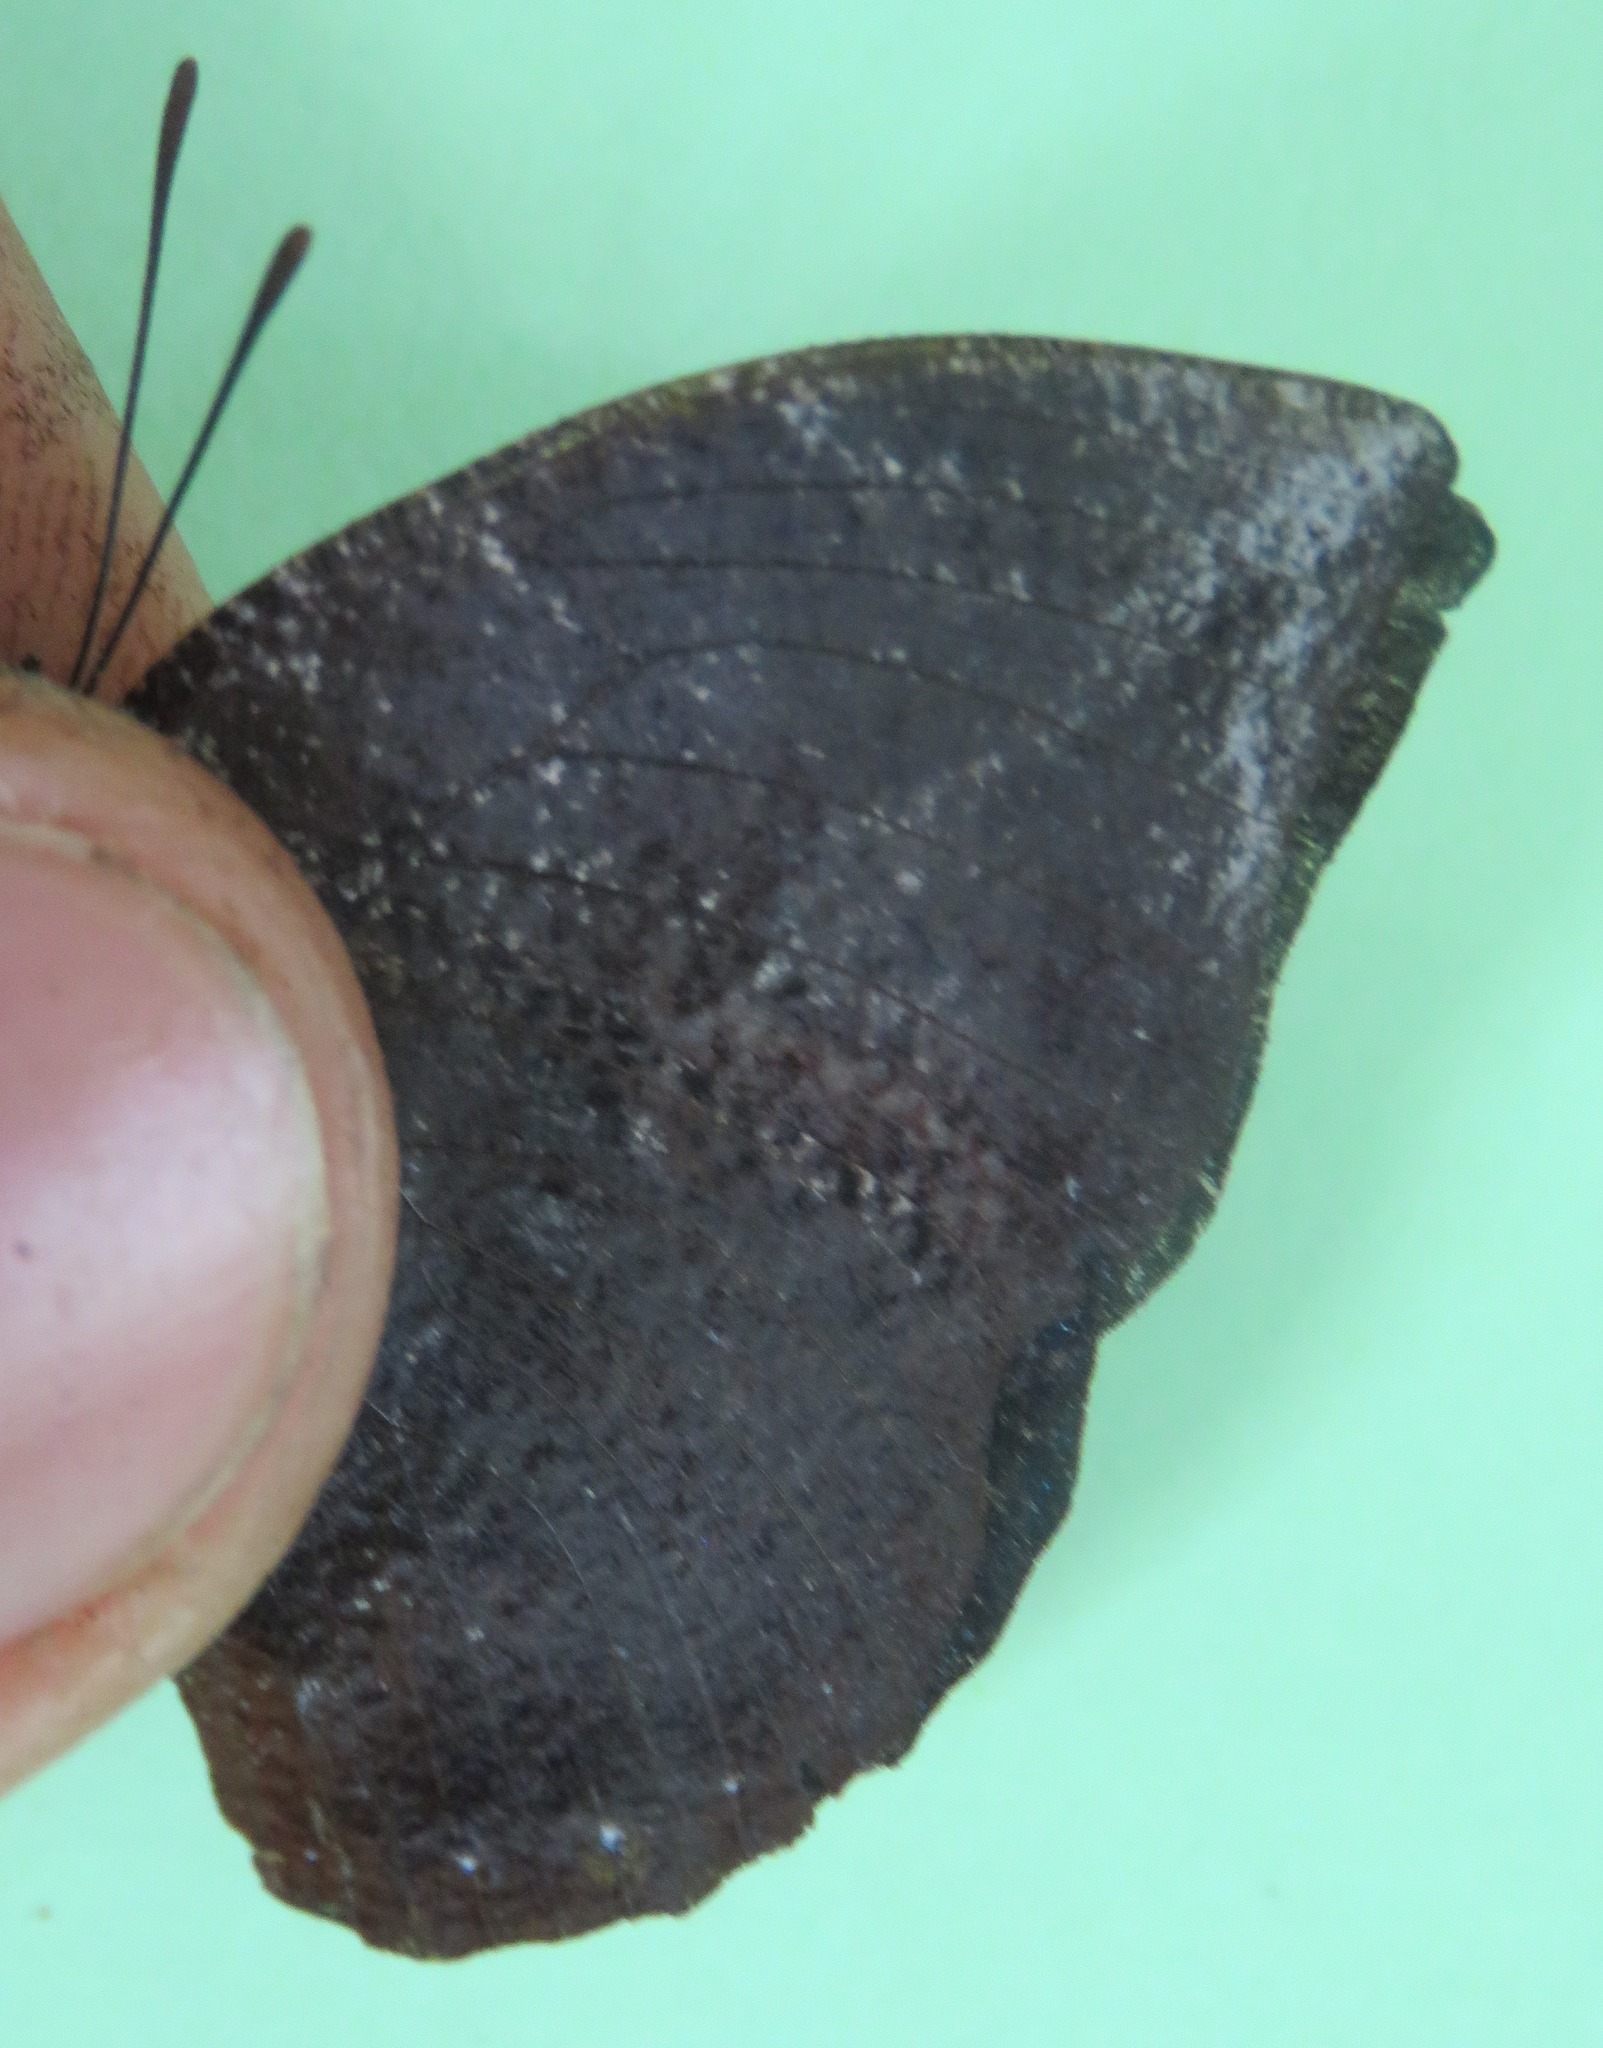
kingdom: Animalia
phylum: Arthropoda
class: Insecta
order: Lepidoptera
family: Nymphalidae
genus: Memphis
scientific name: Memphis moruus
